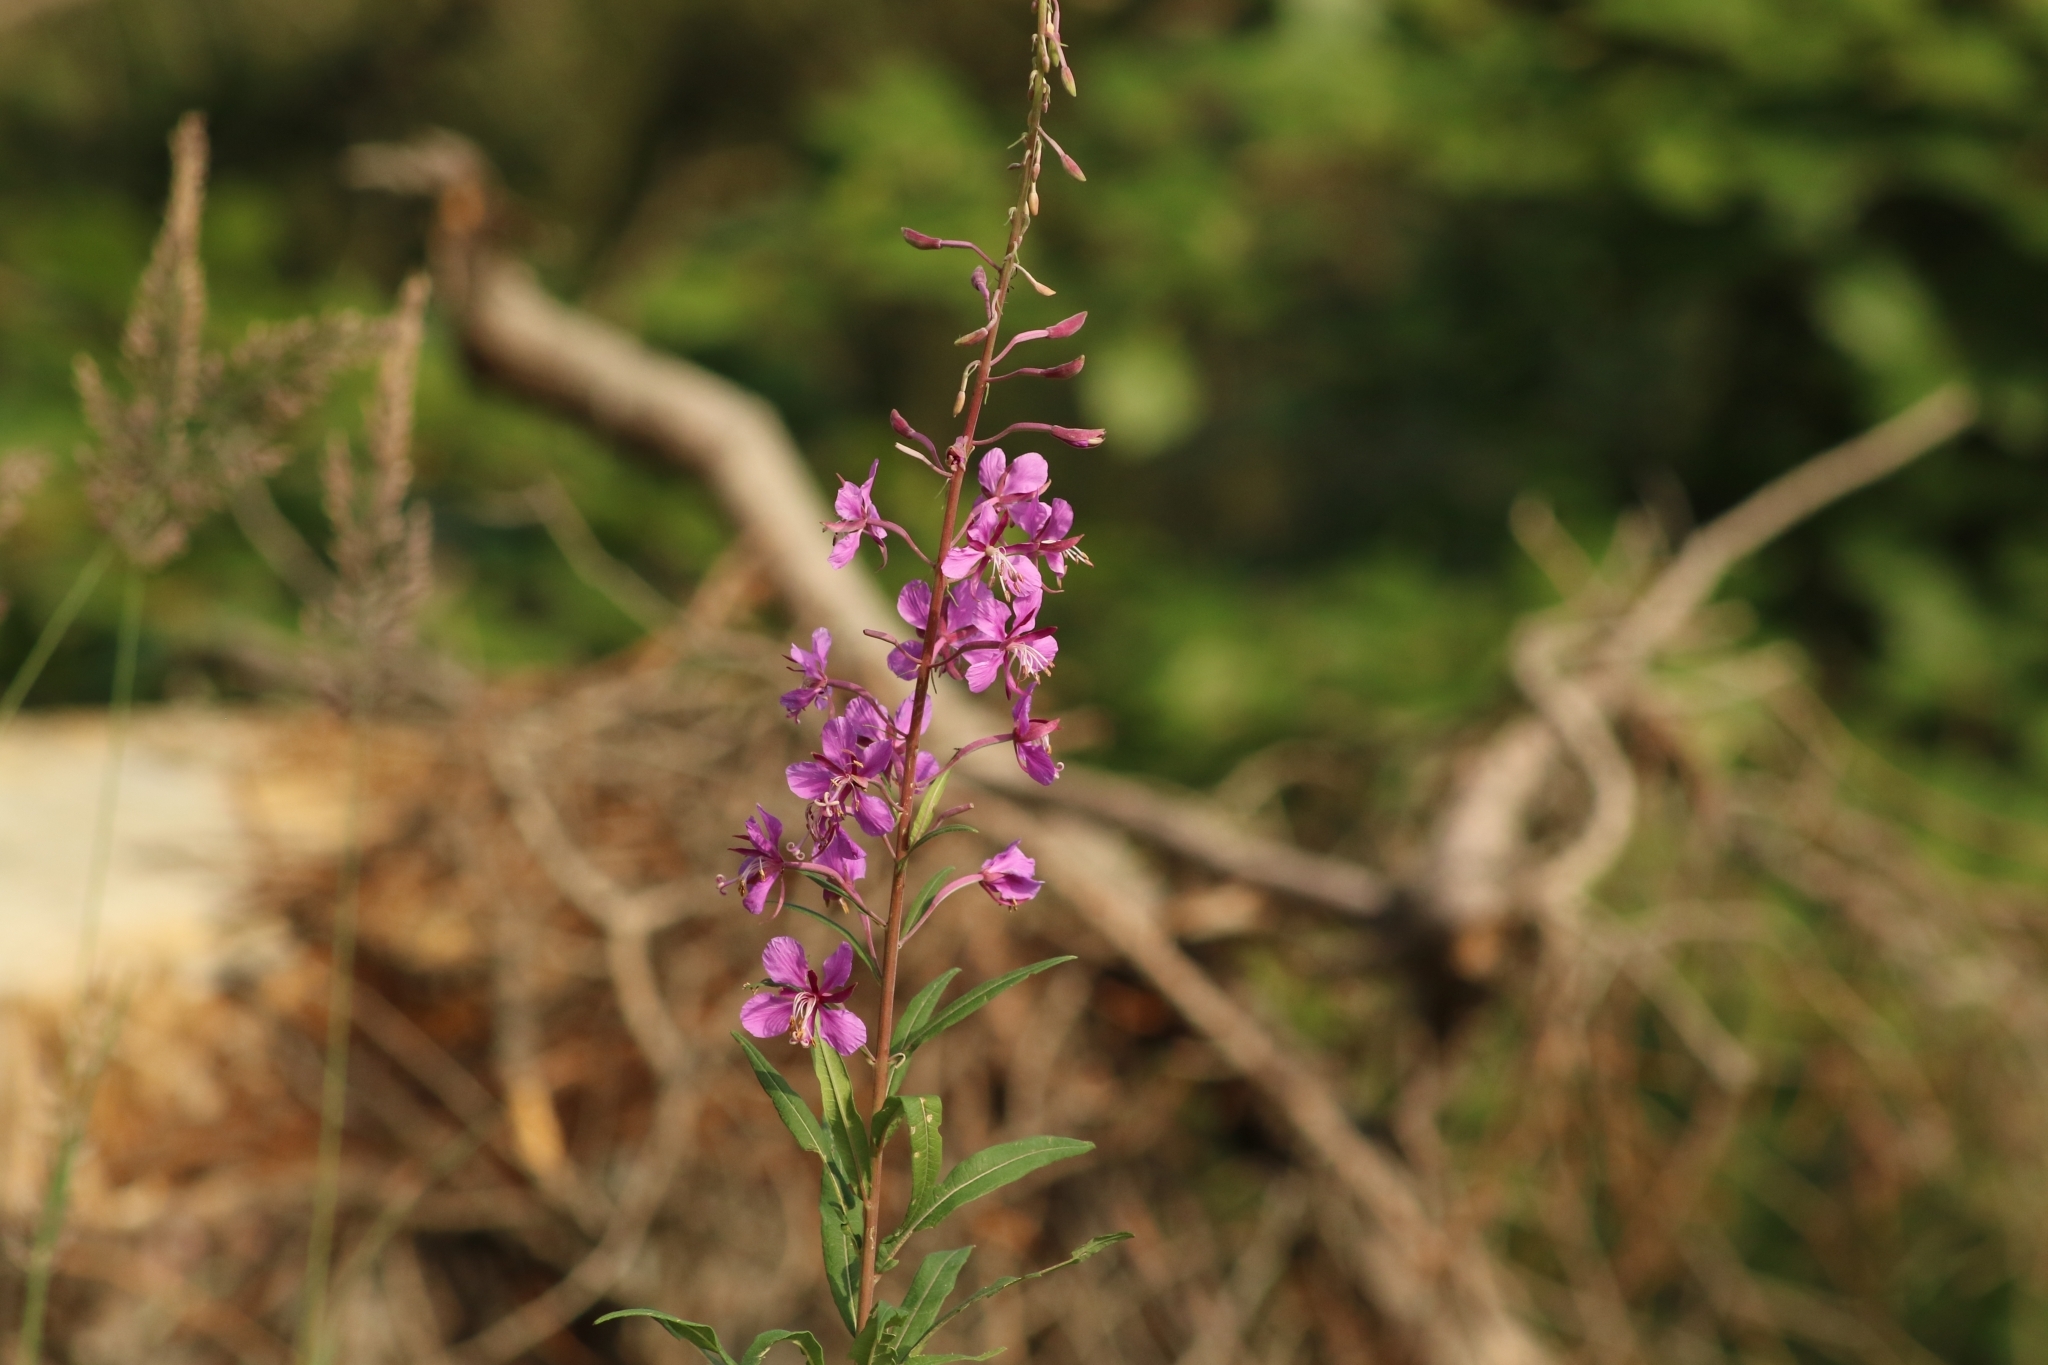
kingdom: Plantae
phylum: Tracheophyta
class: Magnoliopsida
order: Myrtales
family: Onagraceae
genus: Chamaenerion
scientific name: Chamaenerion angustifolium
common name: Fireweed
